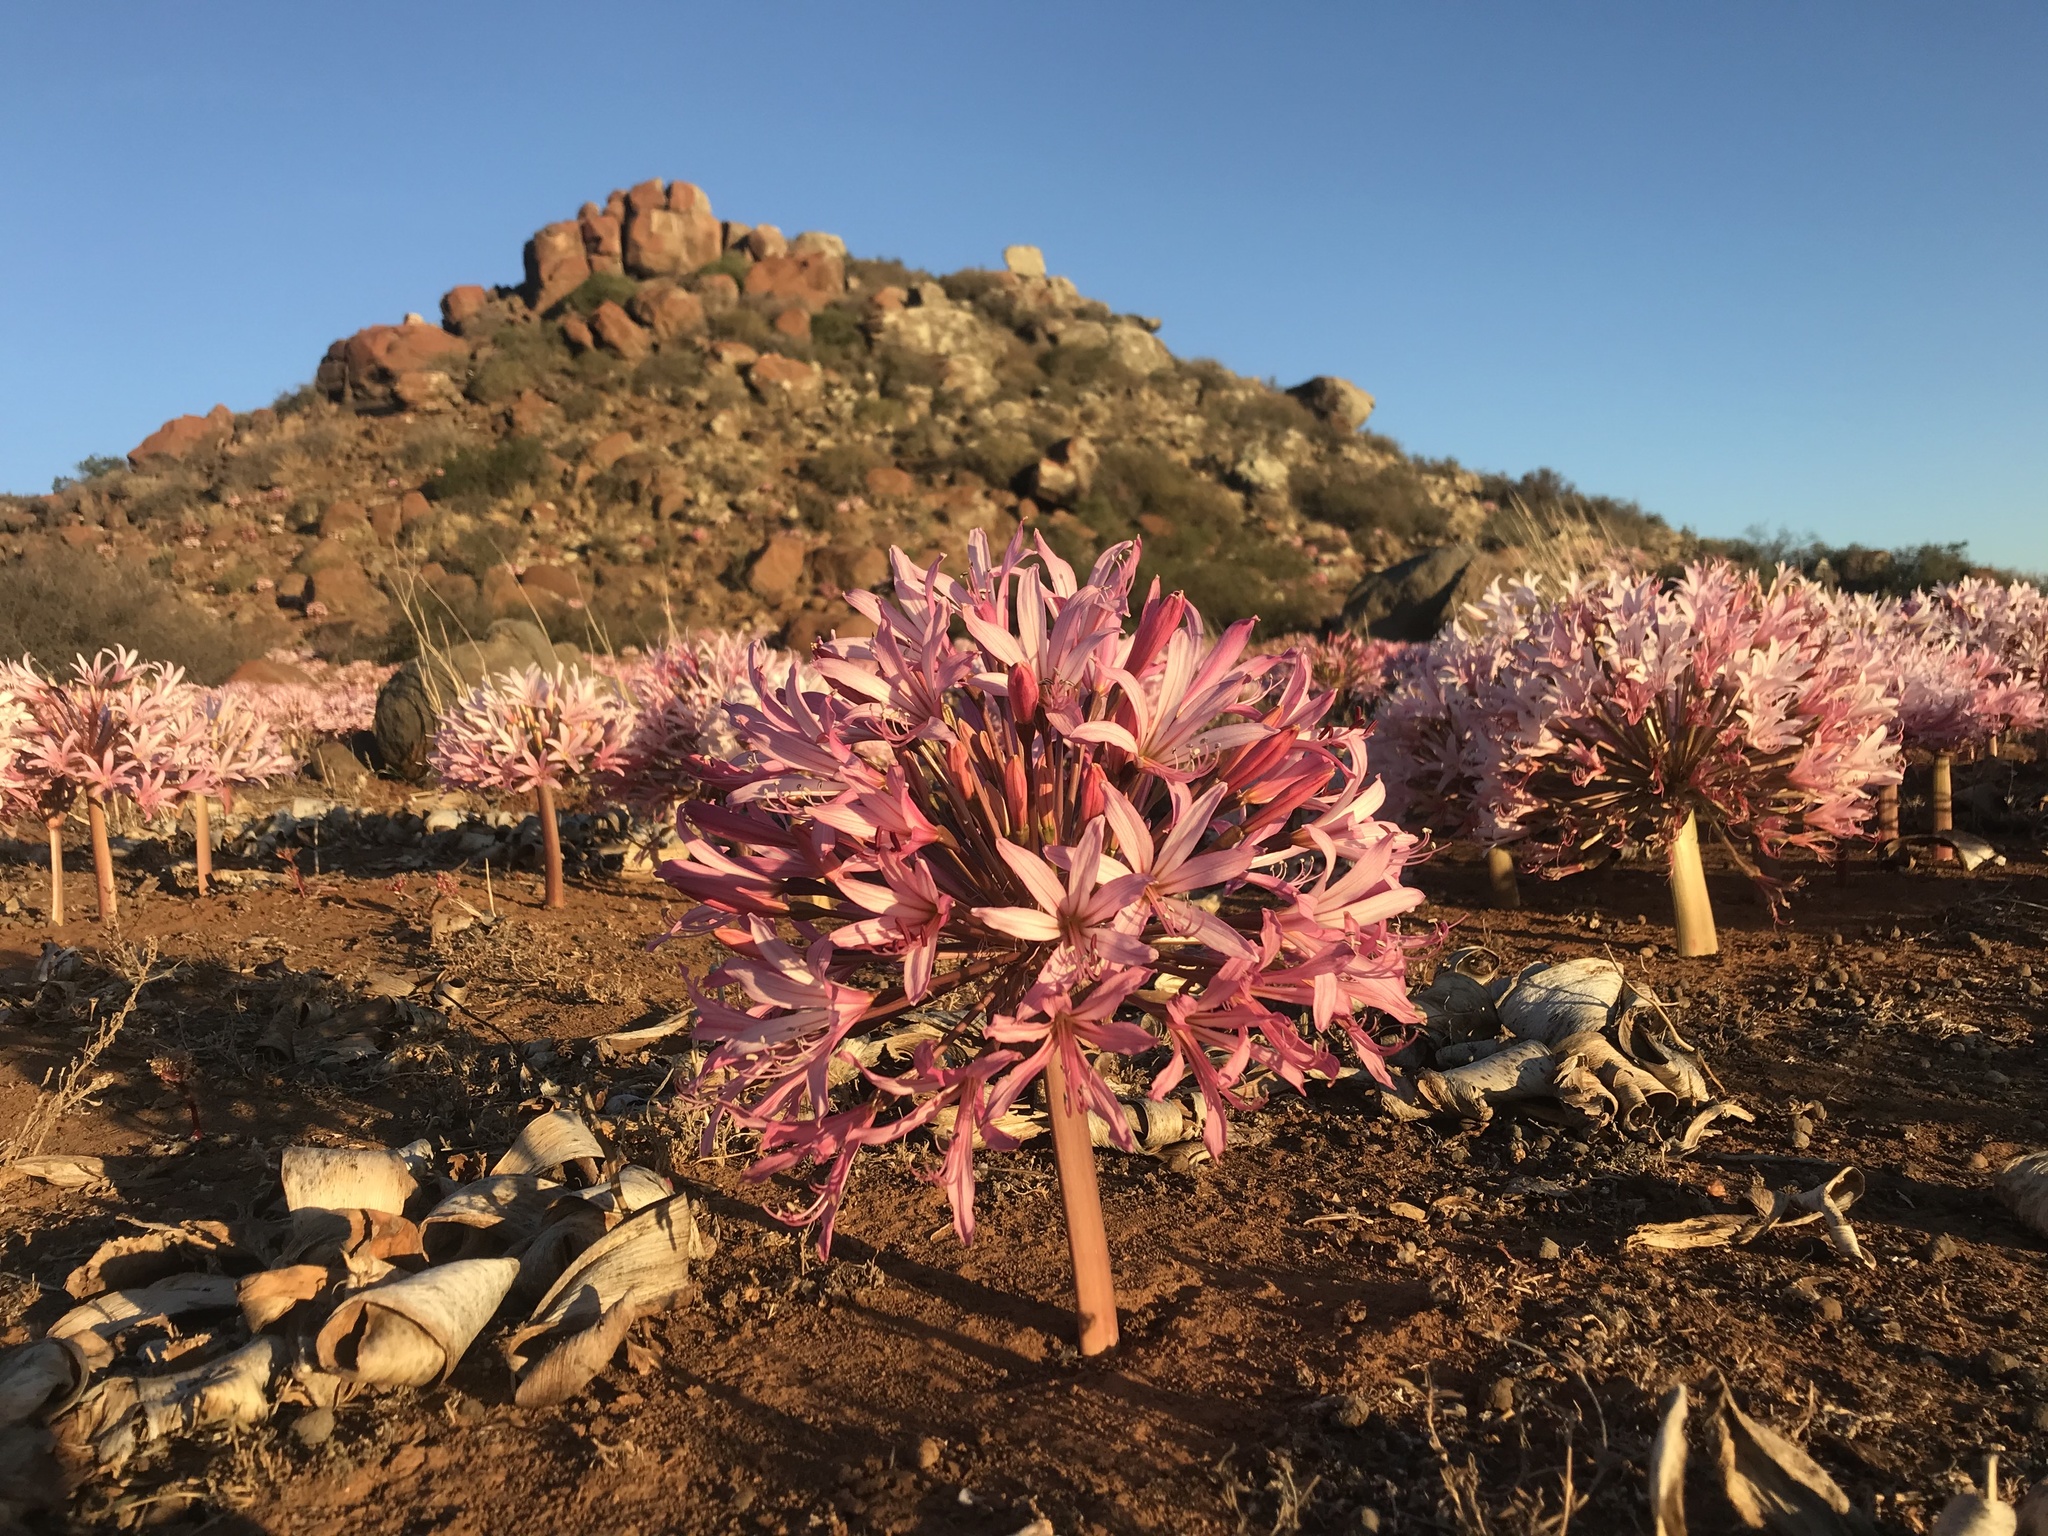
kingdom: Plantae
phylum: Tracheophyta
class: Liliopsida
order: Asparagales
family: Amaryllidaceae
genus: Brunsvigia
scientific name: Brunsvigia bosmaniae
